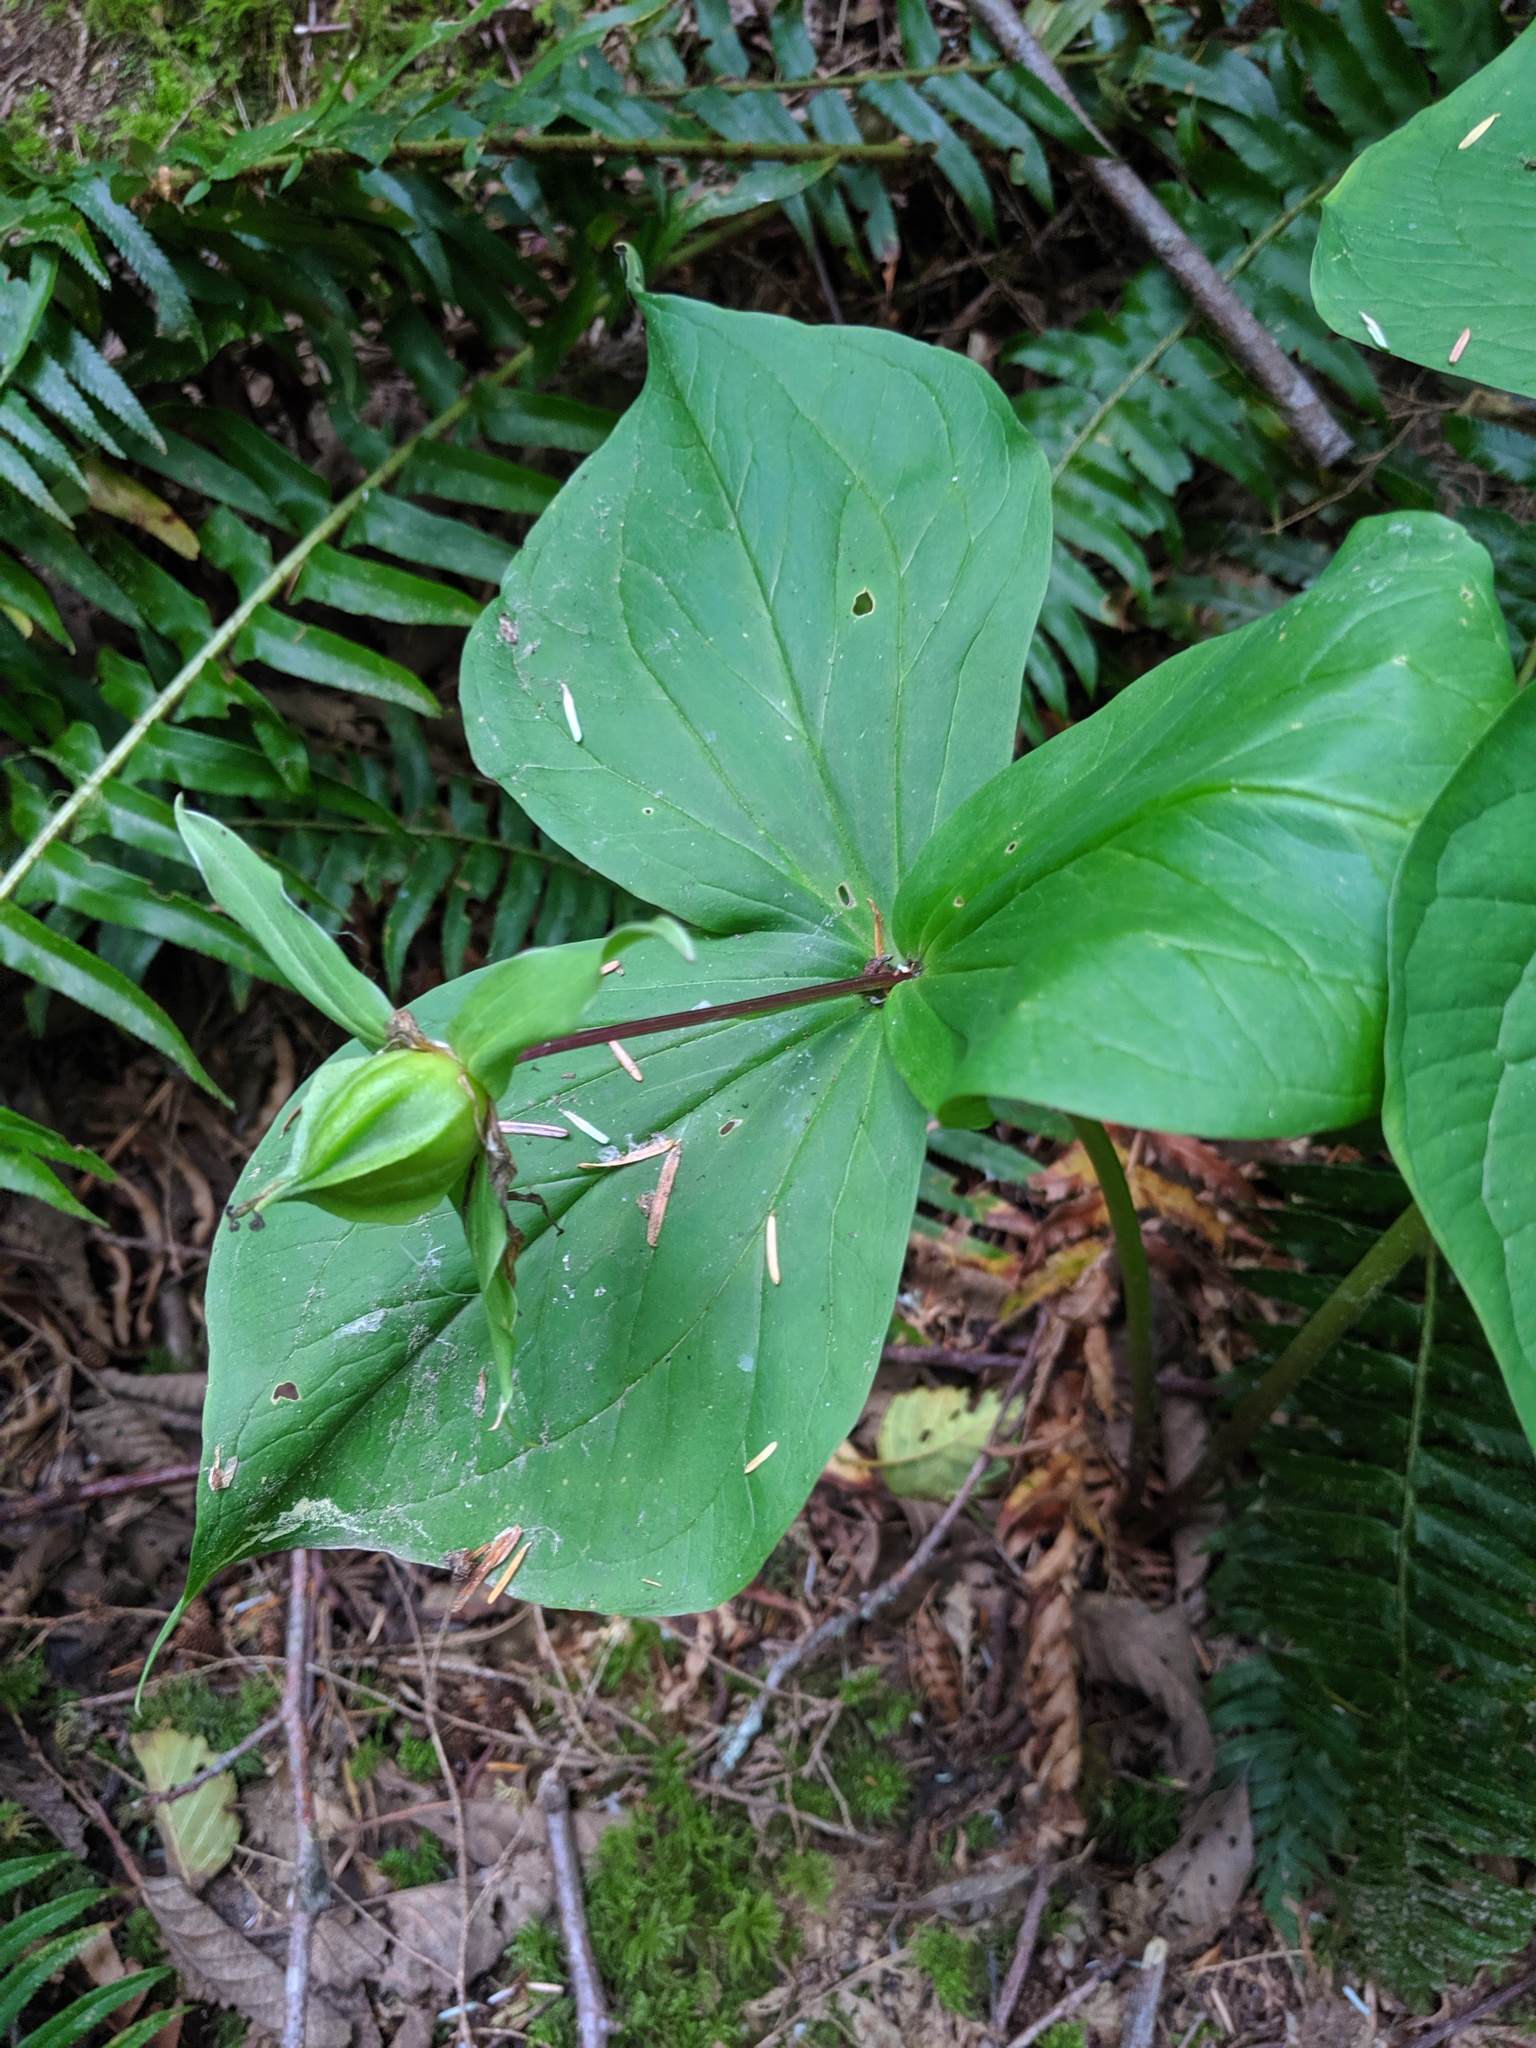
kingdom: Plantae
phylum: Tracheophyta
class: Liliopsida
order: Liliales
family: Melanthiaceae
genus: Trillium
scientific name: Trillium ovatum
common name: Pacific trillium
